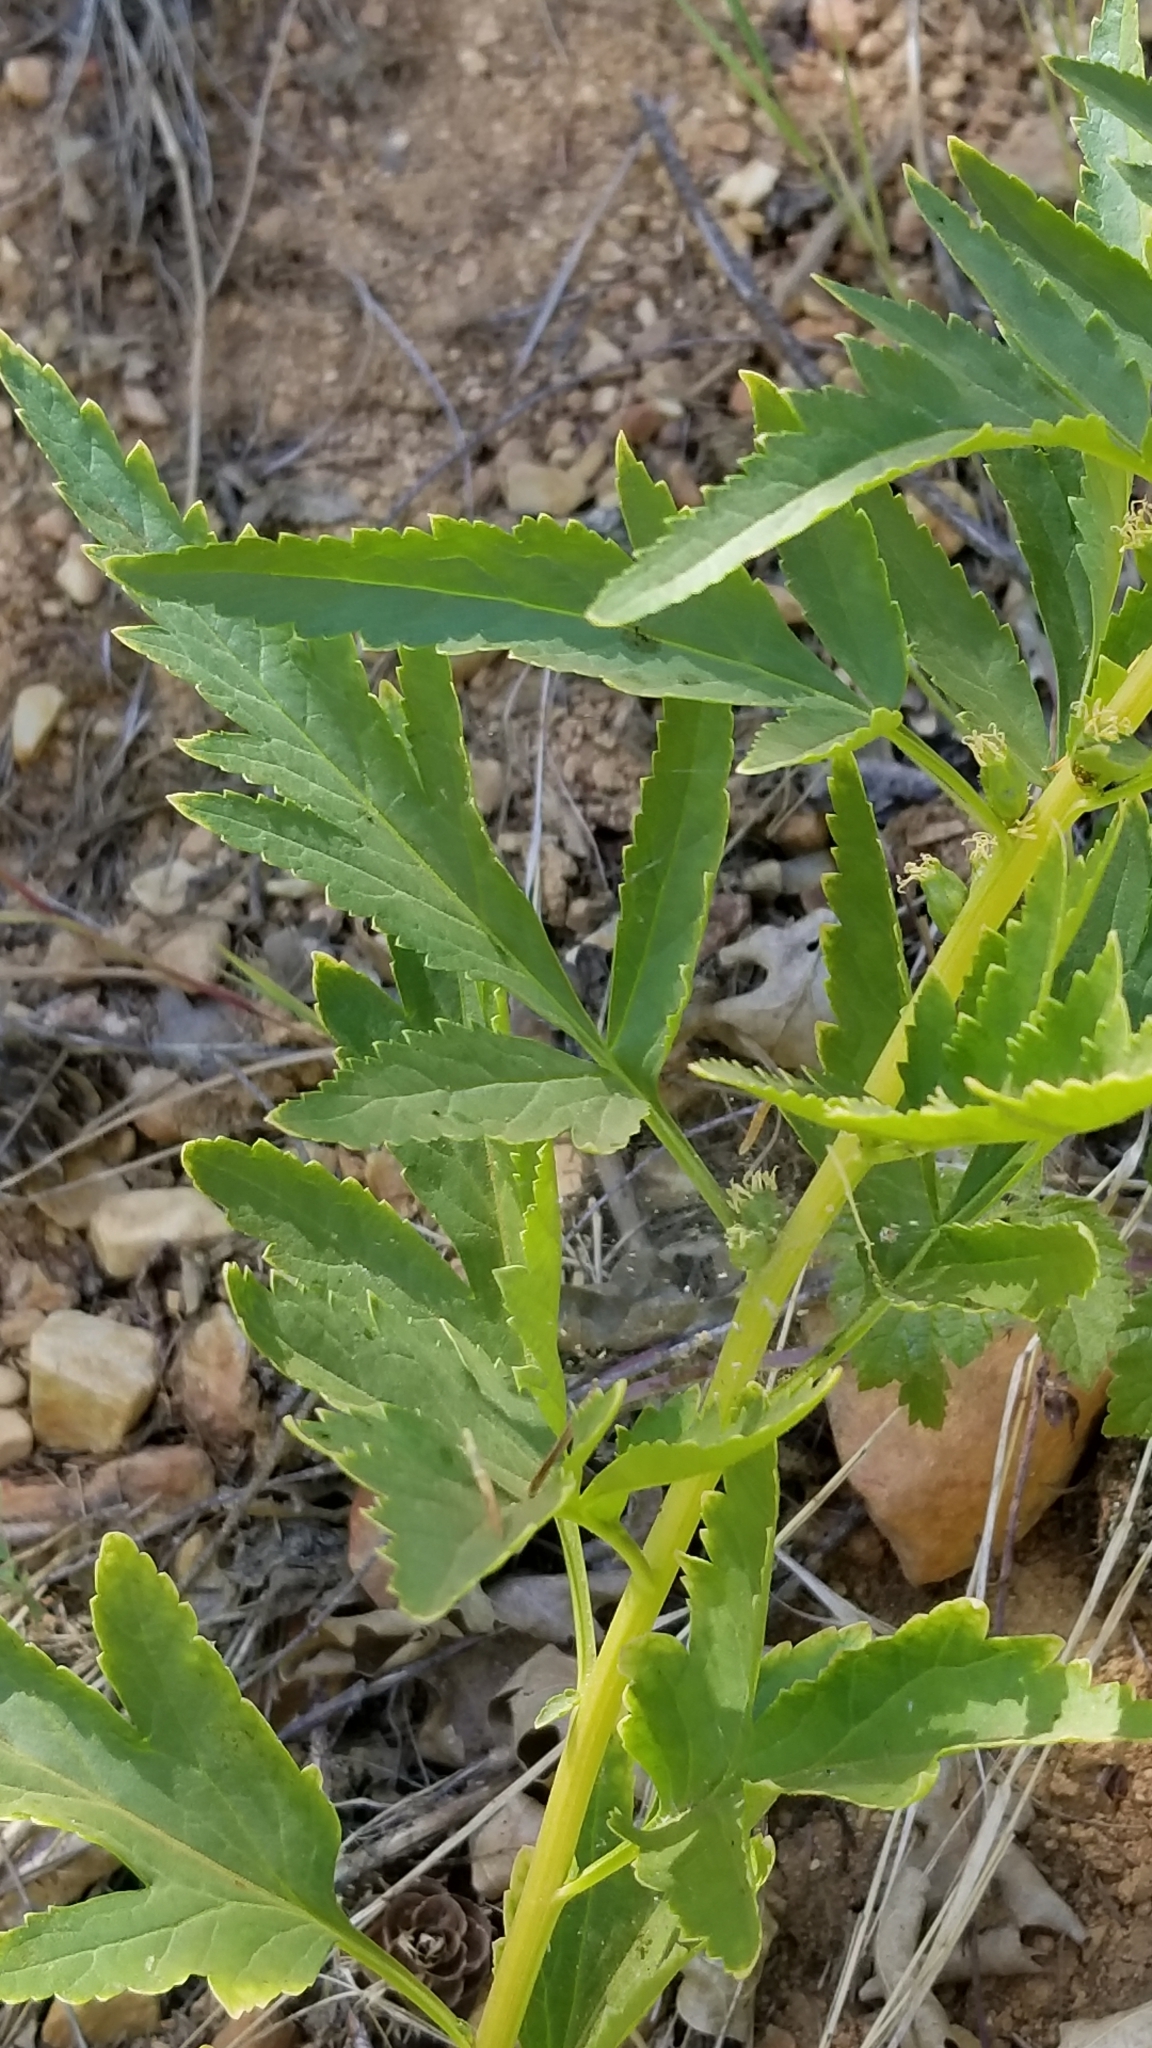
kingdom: Plantae
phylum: Tracheophyta
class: Magnoliopsida
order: Cucurbitales
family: Datiscaceae
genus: Datisca
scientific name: Datisca glomerata
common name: Durango-root
